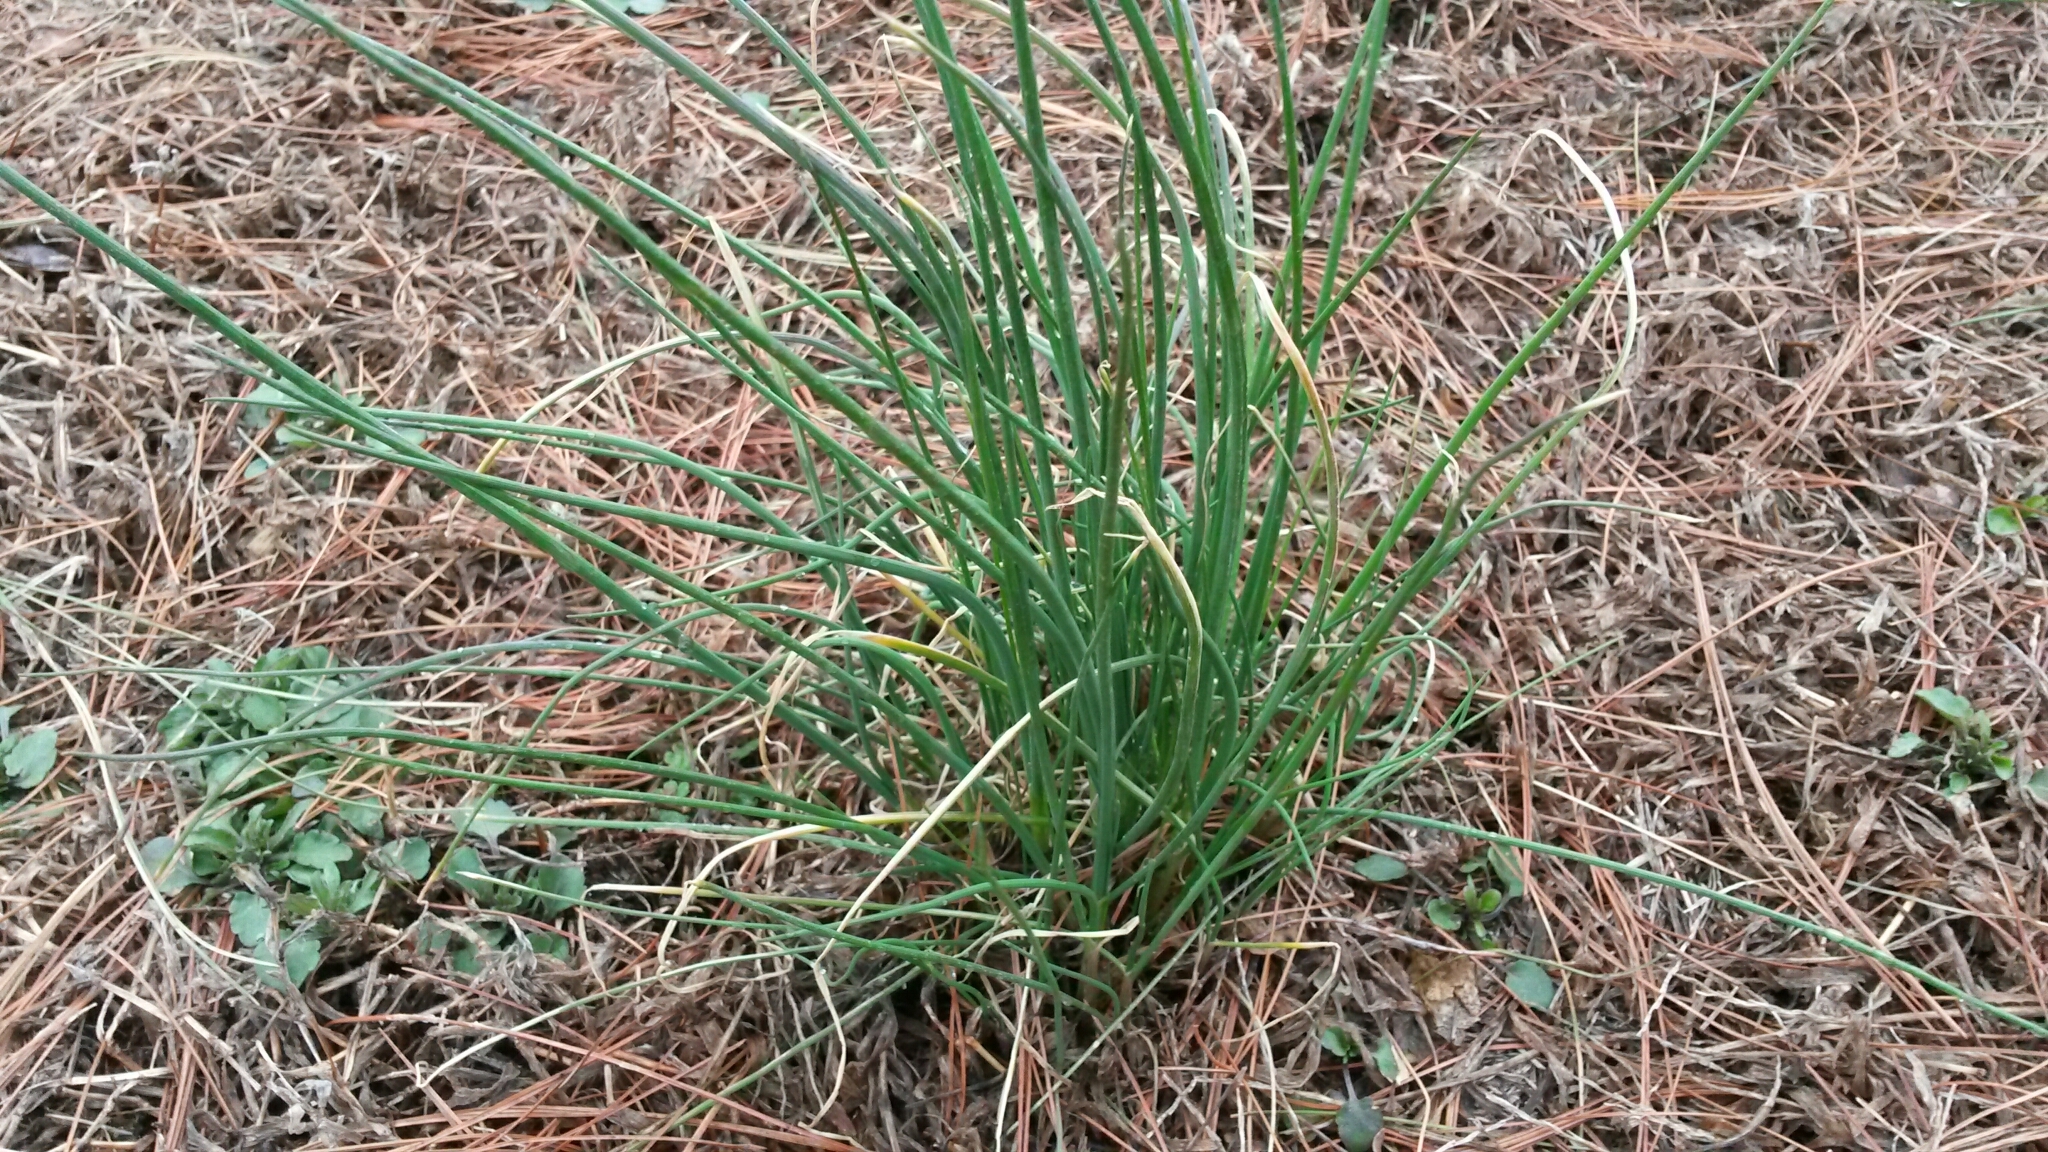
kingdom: Plantae
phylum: Tracheophyta
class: Liliopsida
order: Asparagales
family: Amaryllidaceae
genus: Allium
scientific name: Allium vineale
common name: Crow garlic
